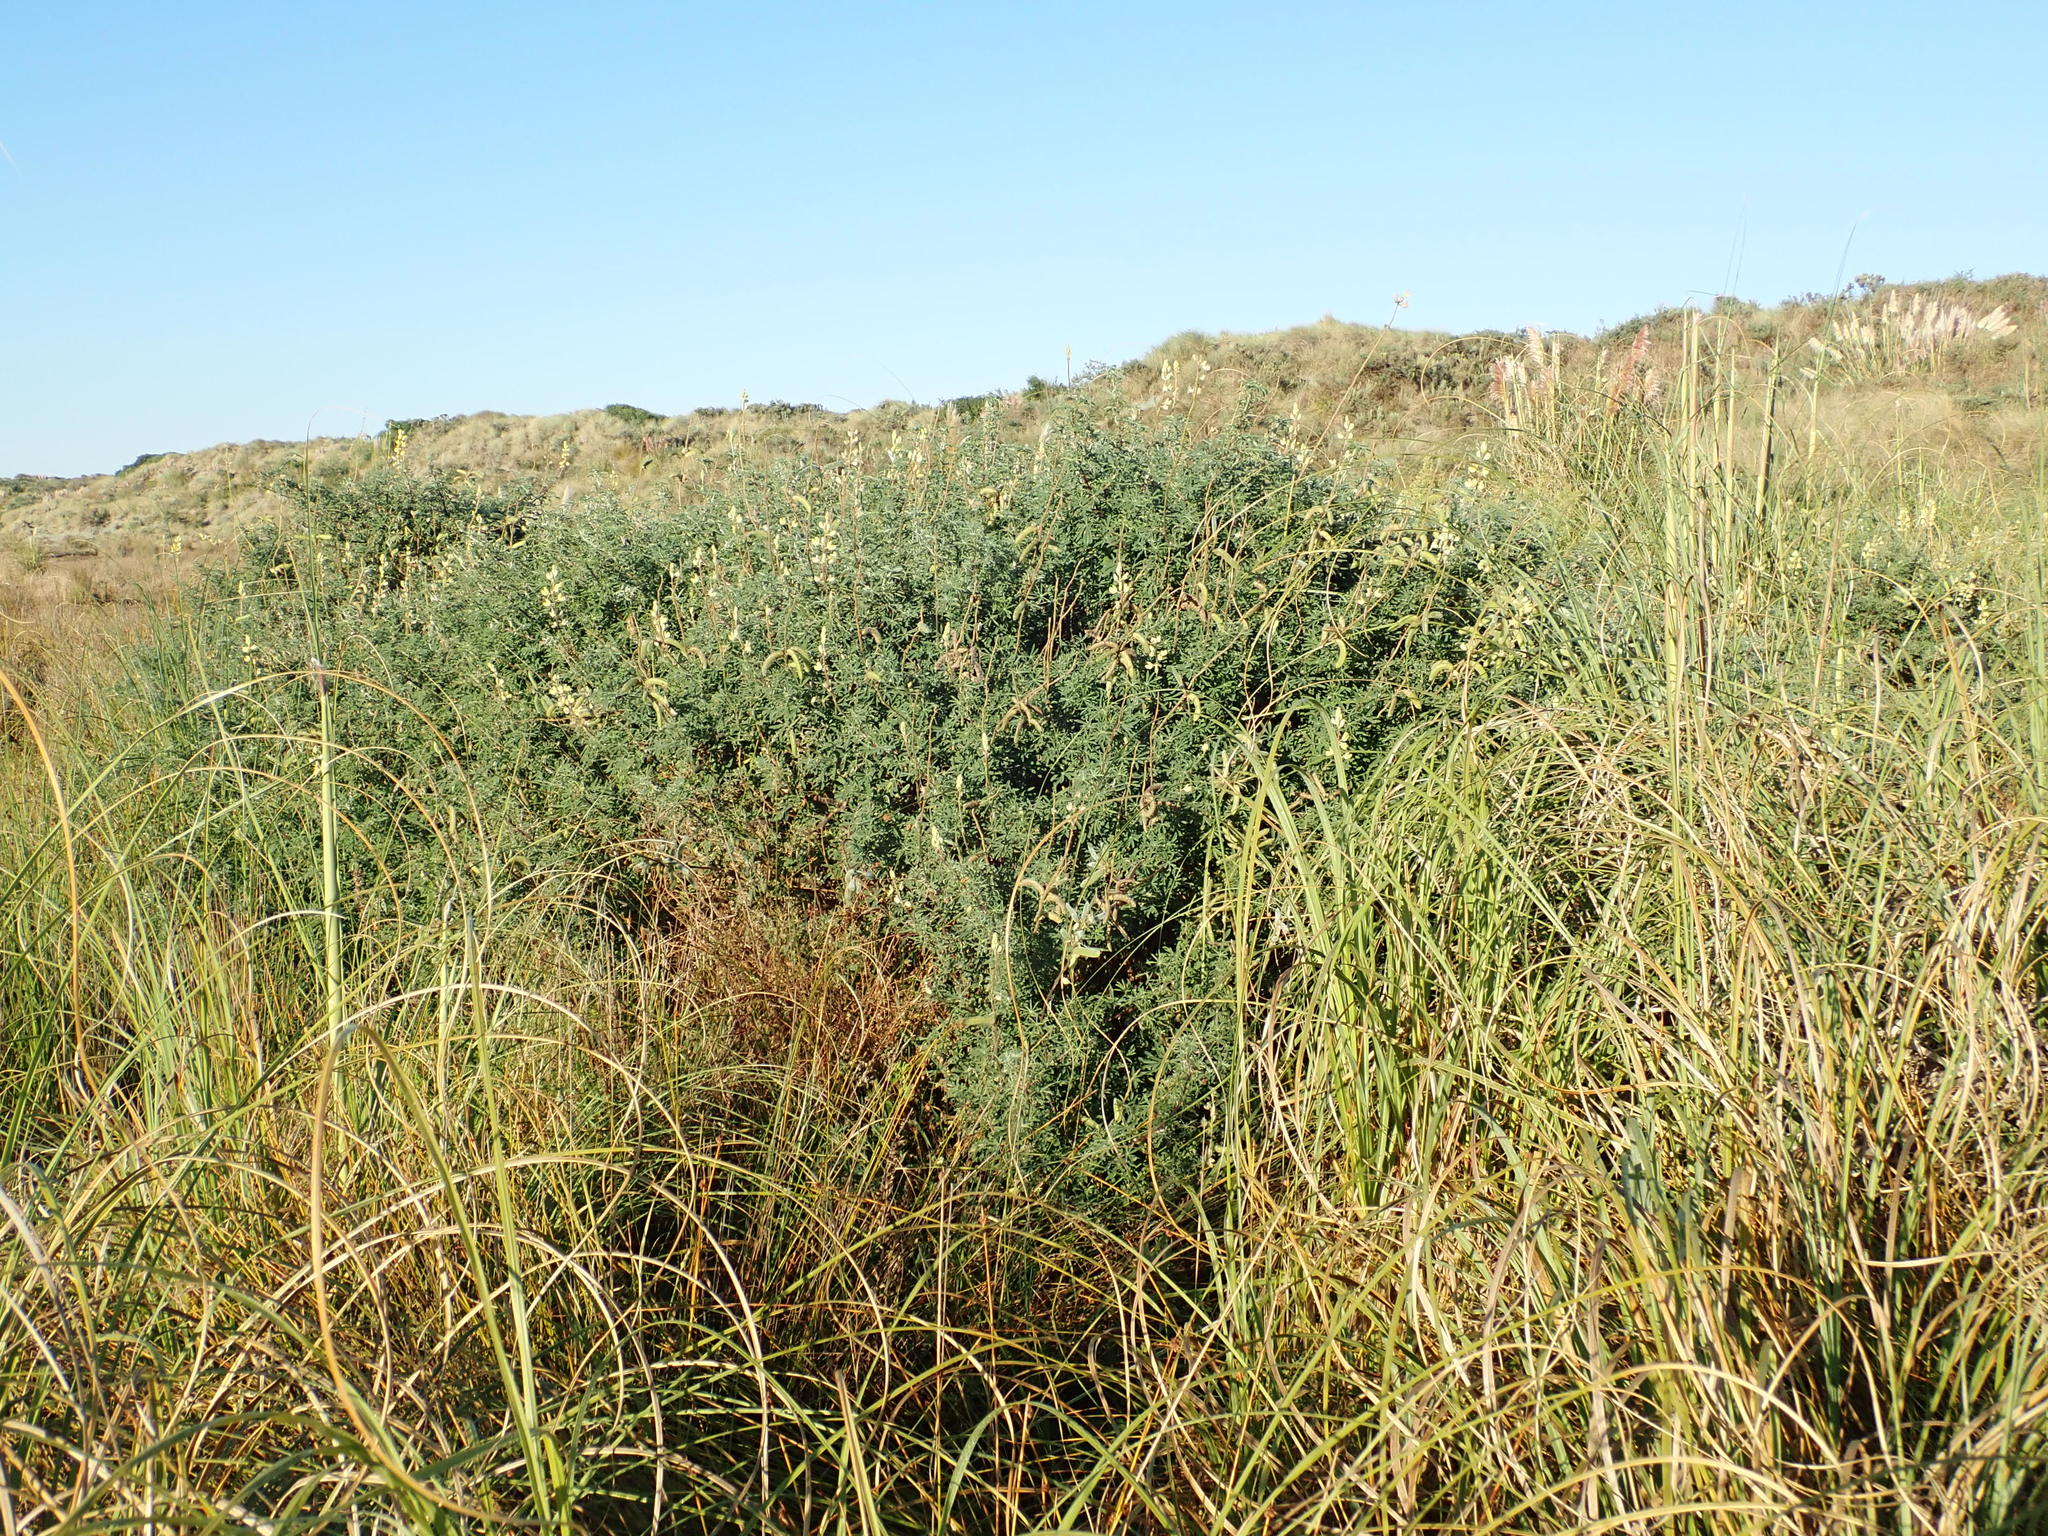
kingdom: Plantae
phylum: Tracheophyta
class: Magnoliopsida
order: Fabales
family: Fabaceae
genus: Lupinus
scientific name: Lupinus arboreus
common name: Yellow bush lupine
